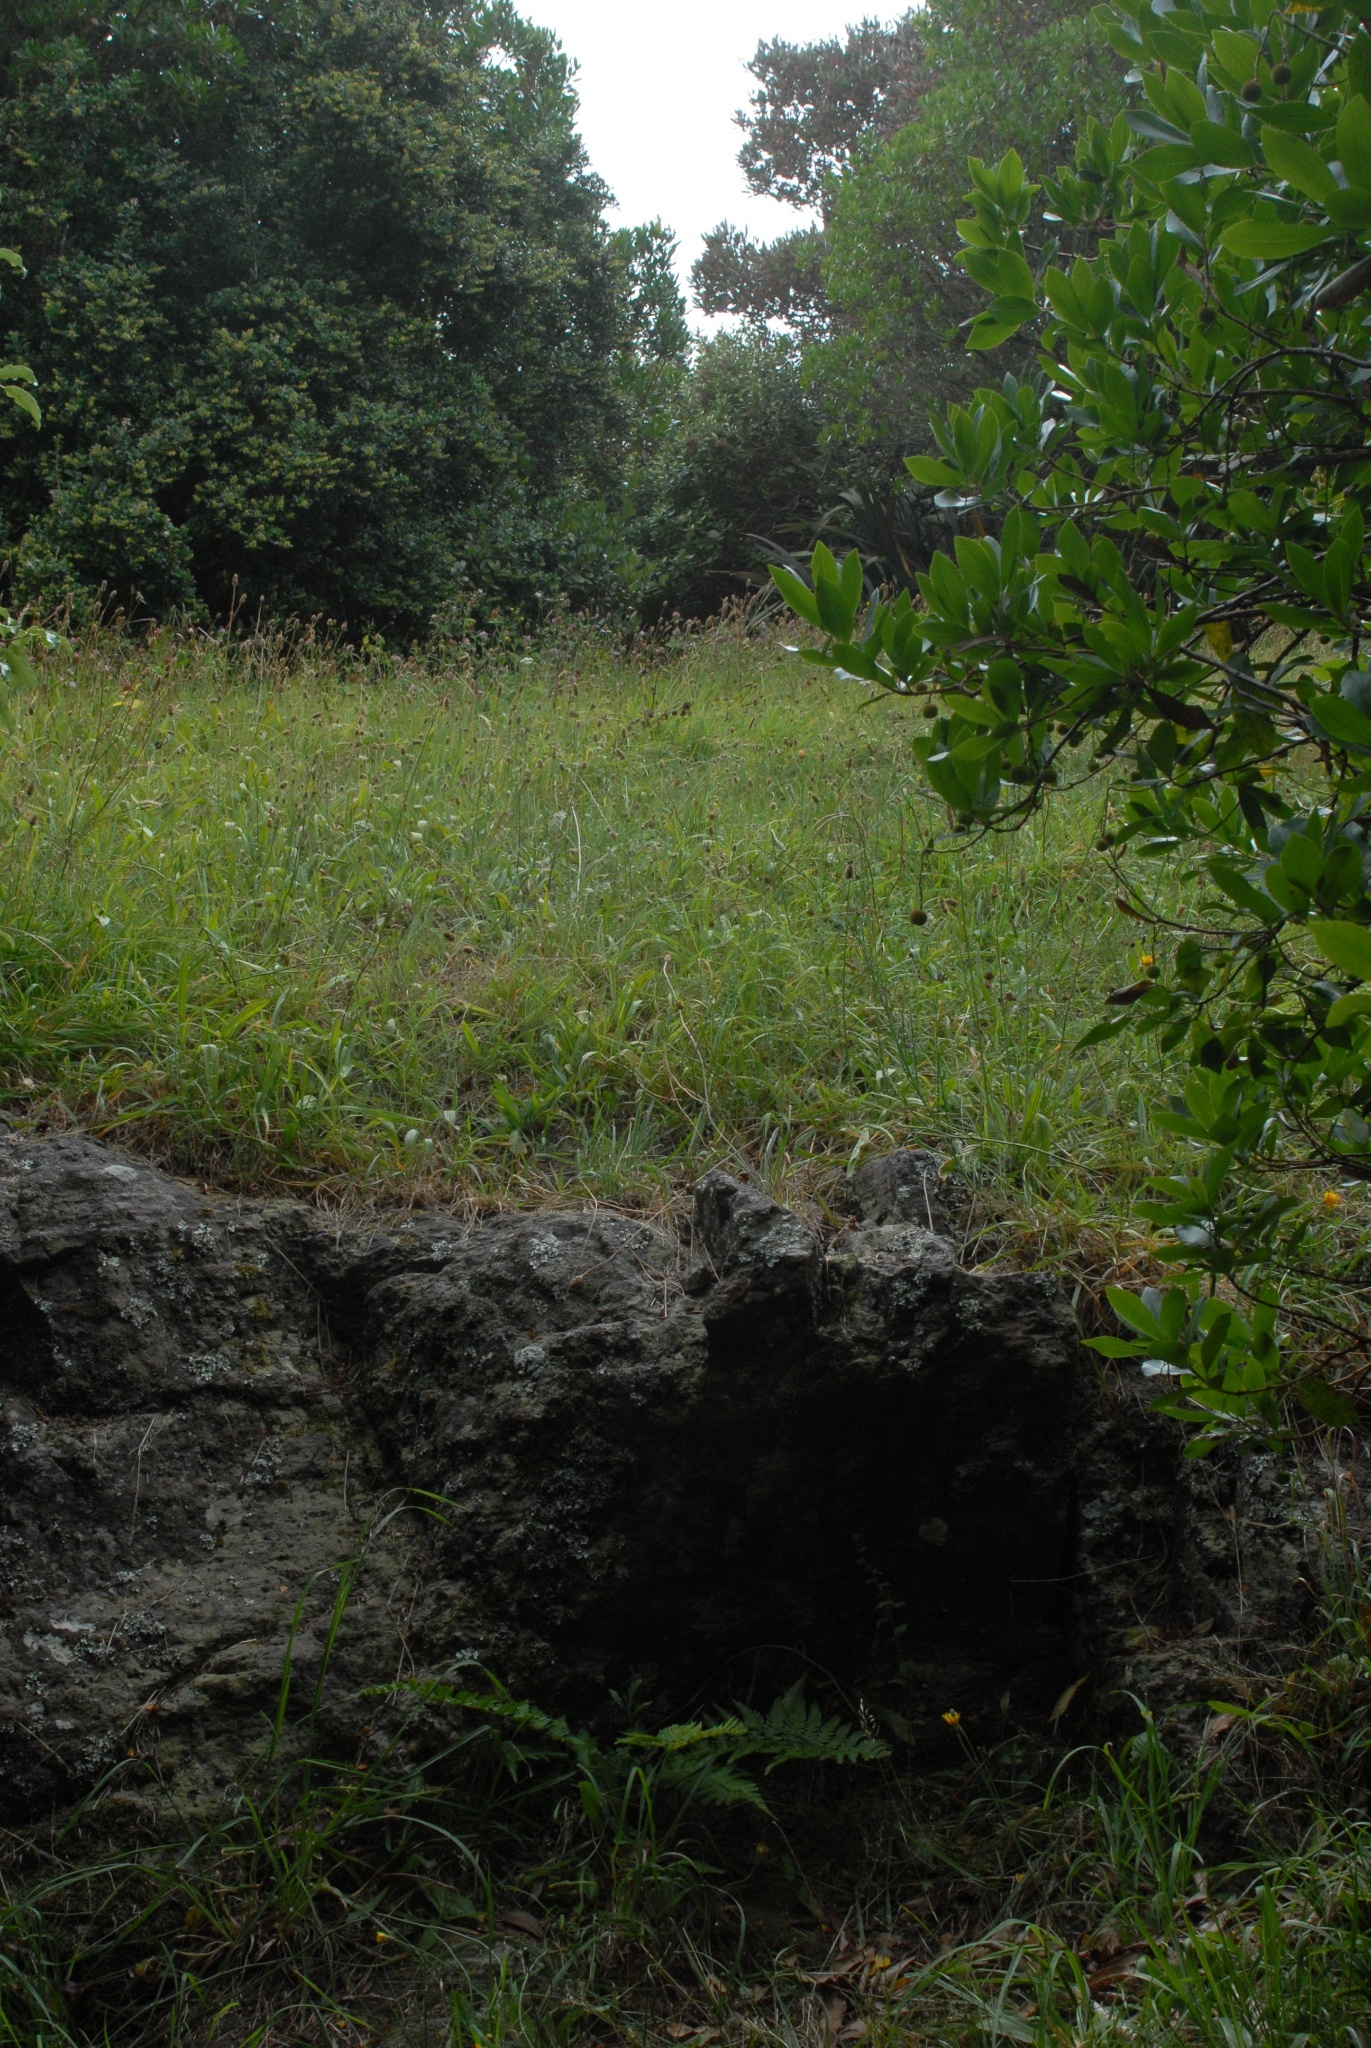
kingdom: Plantae
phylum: Tracheophyta
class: Magnoliopsida
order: Asterales
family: Asteraceae
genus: Senecio
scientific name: Senecio glomeratus
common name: Cutleaf burnweed
